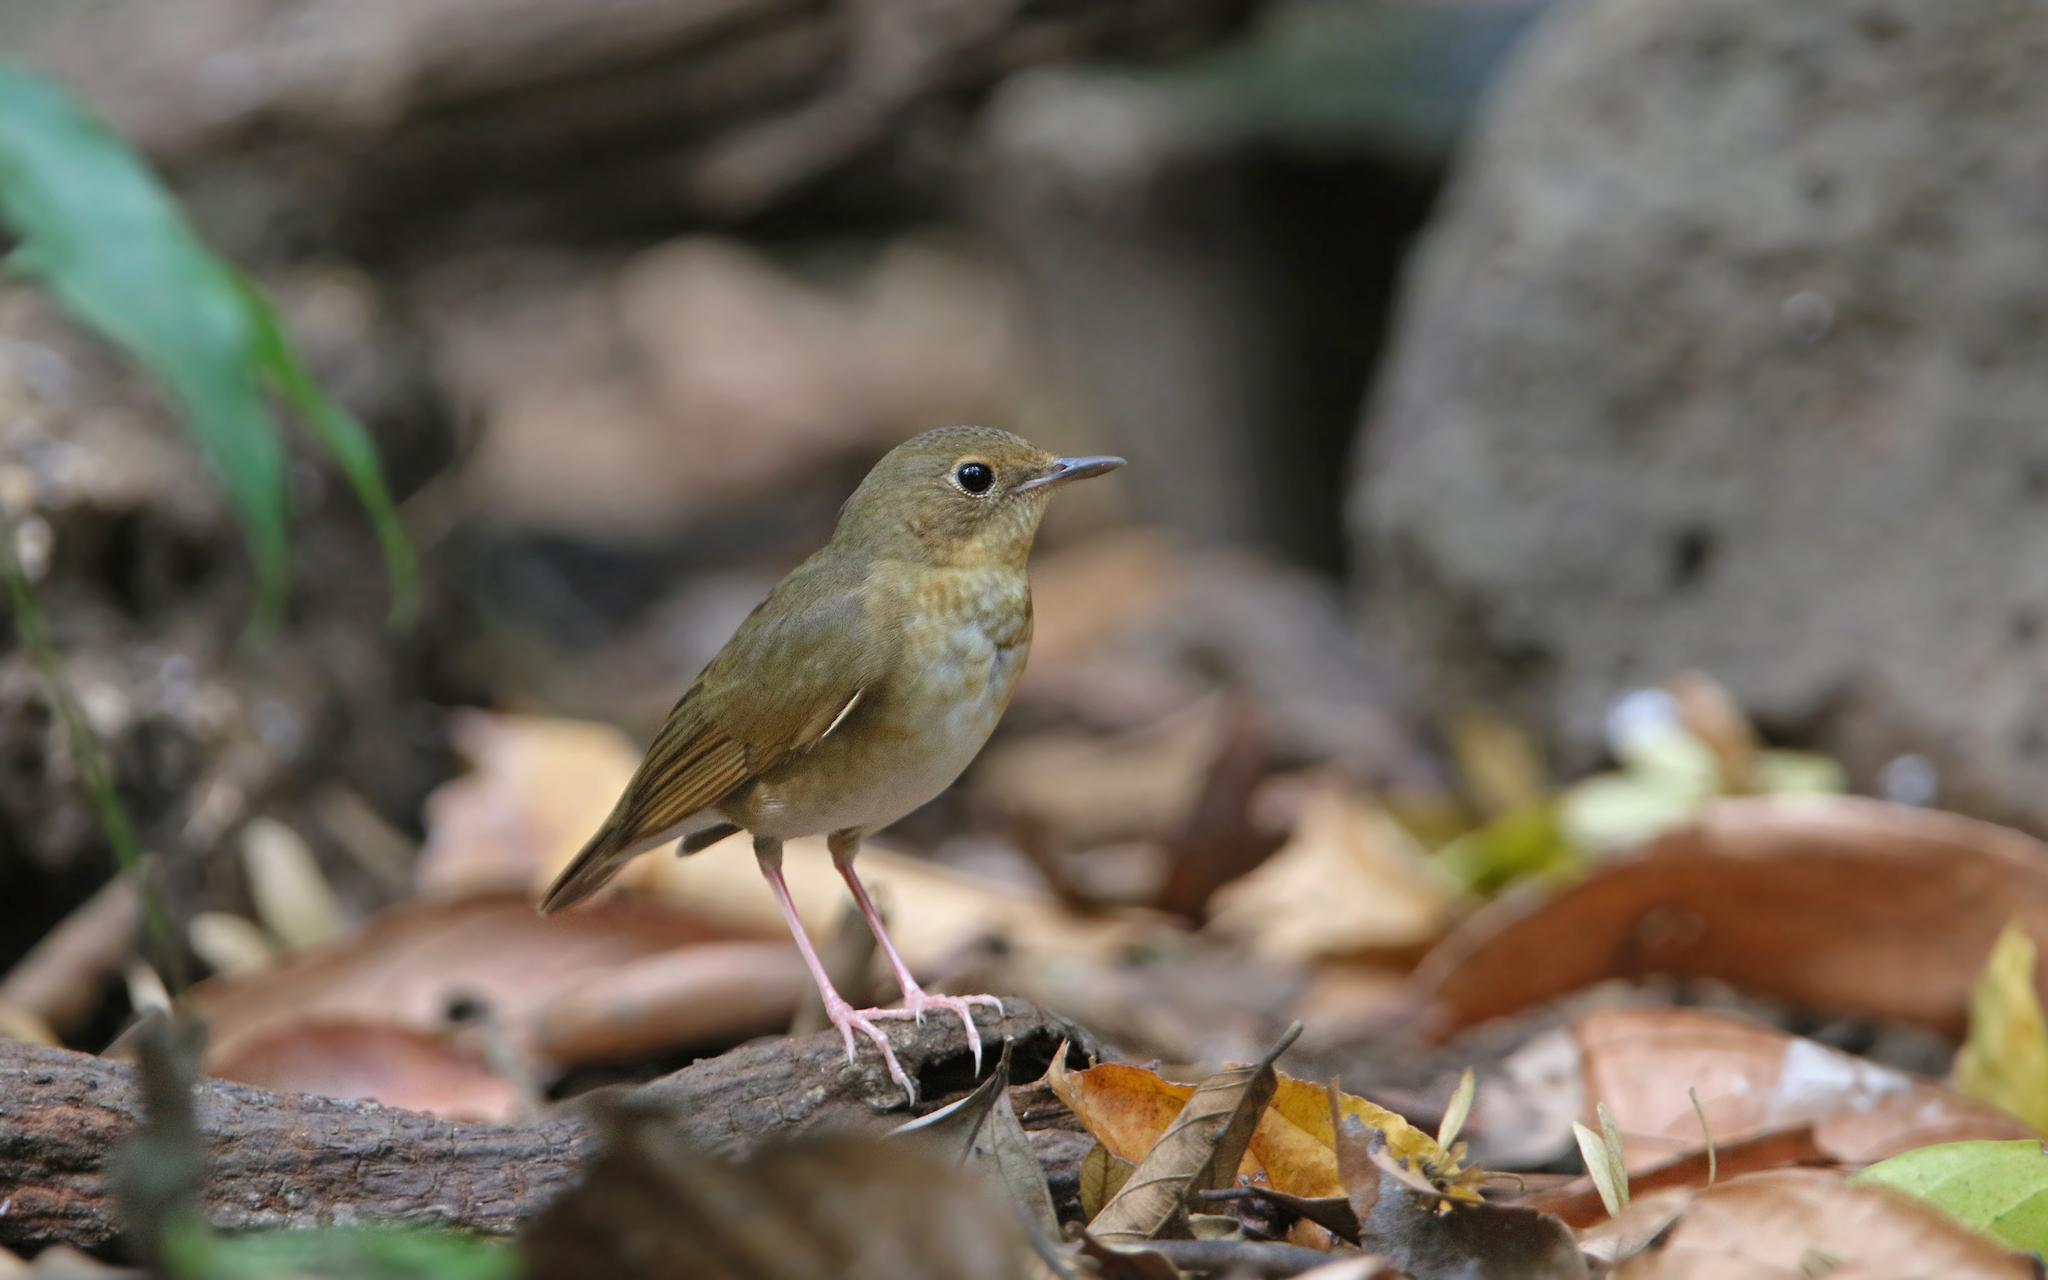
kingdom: Animalia
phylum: Chordata
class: Aves
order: Passeriformes
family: Muscicapidae
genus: Luscinia
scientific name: Luscinia cyane
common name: Siberian blue robin
